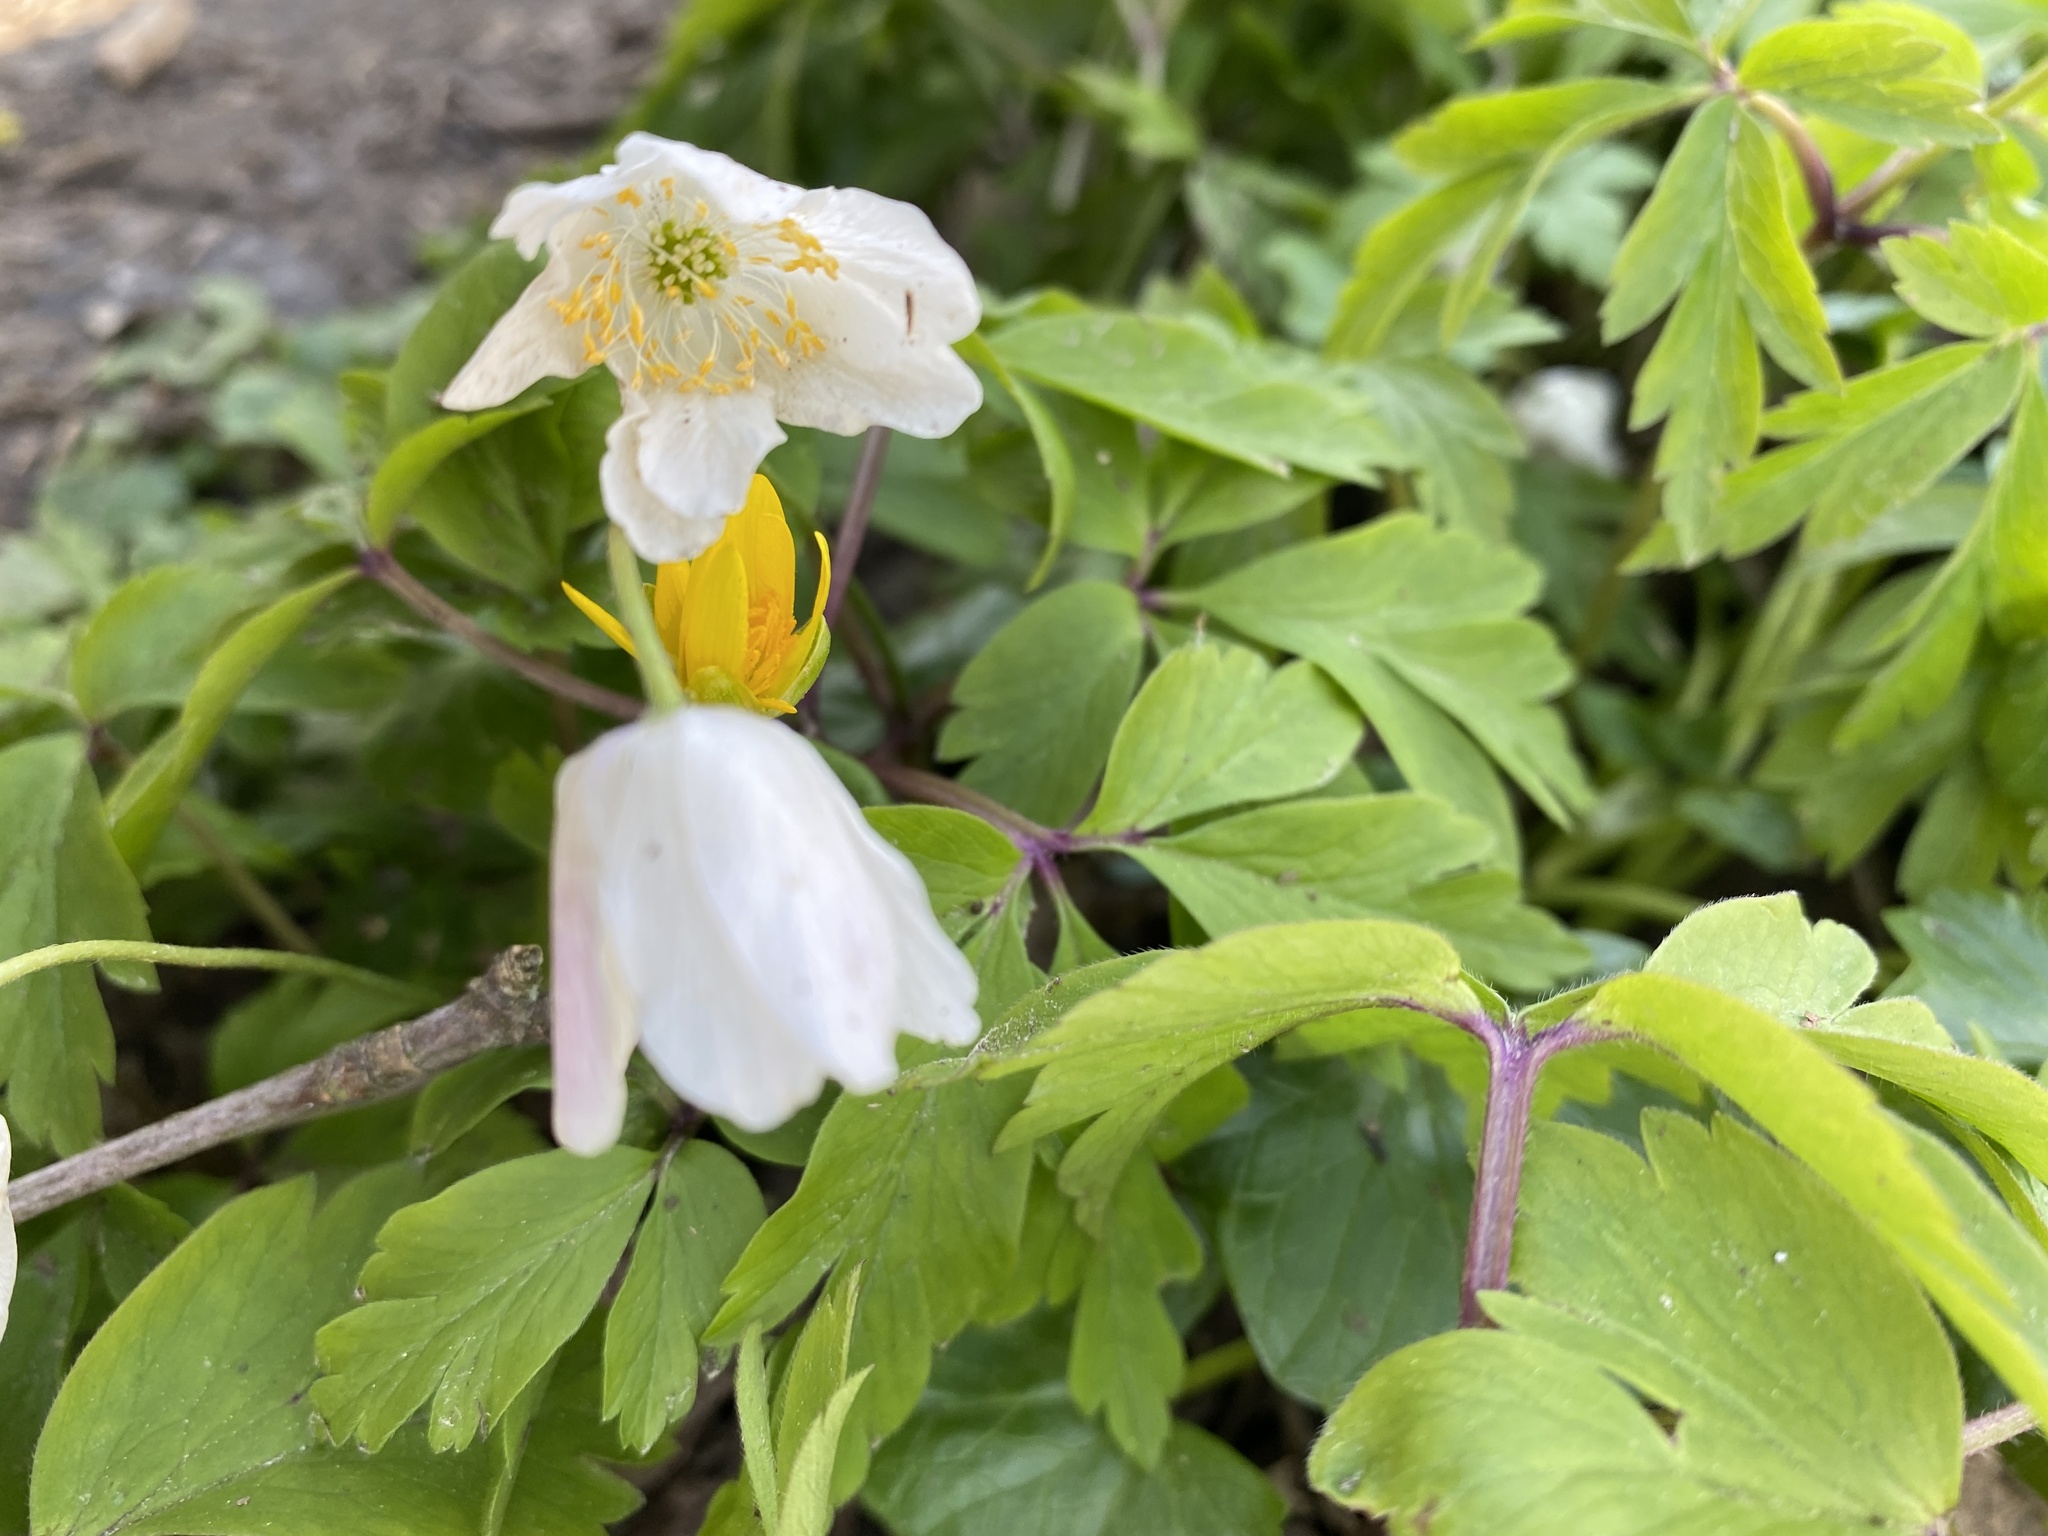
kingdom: Plantae
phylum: Tracheophyta
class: Magnoliopsida
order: Ranunculales
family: Ranunculaceae
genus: Anemone
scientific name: Anemone nemorosa
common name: Wood anemone
